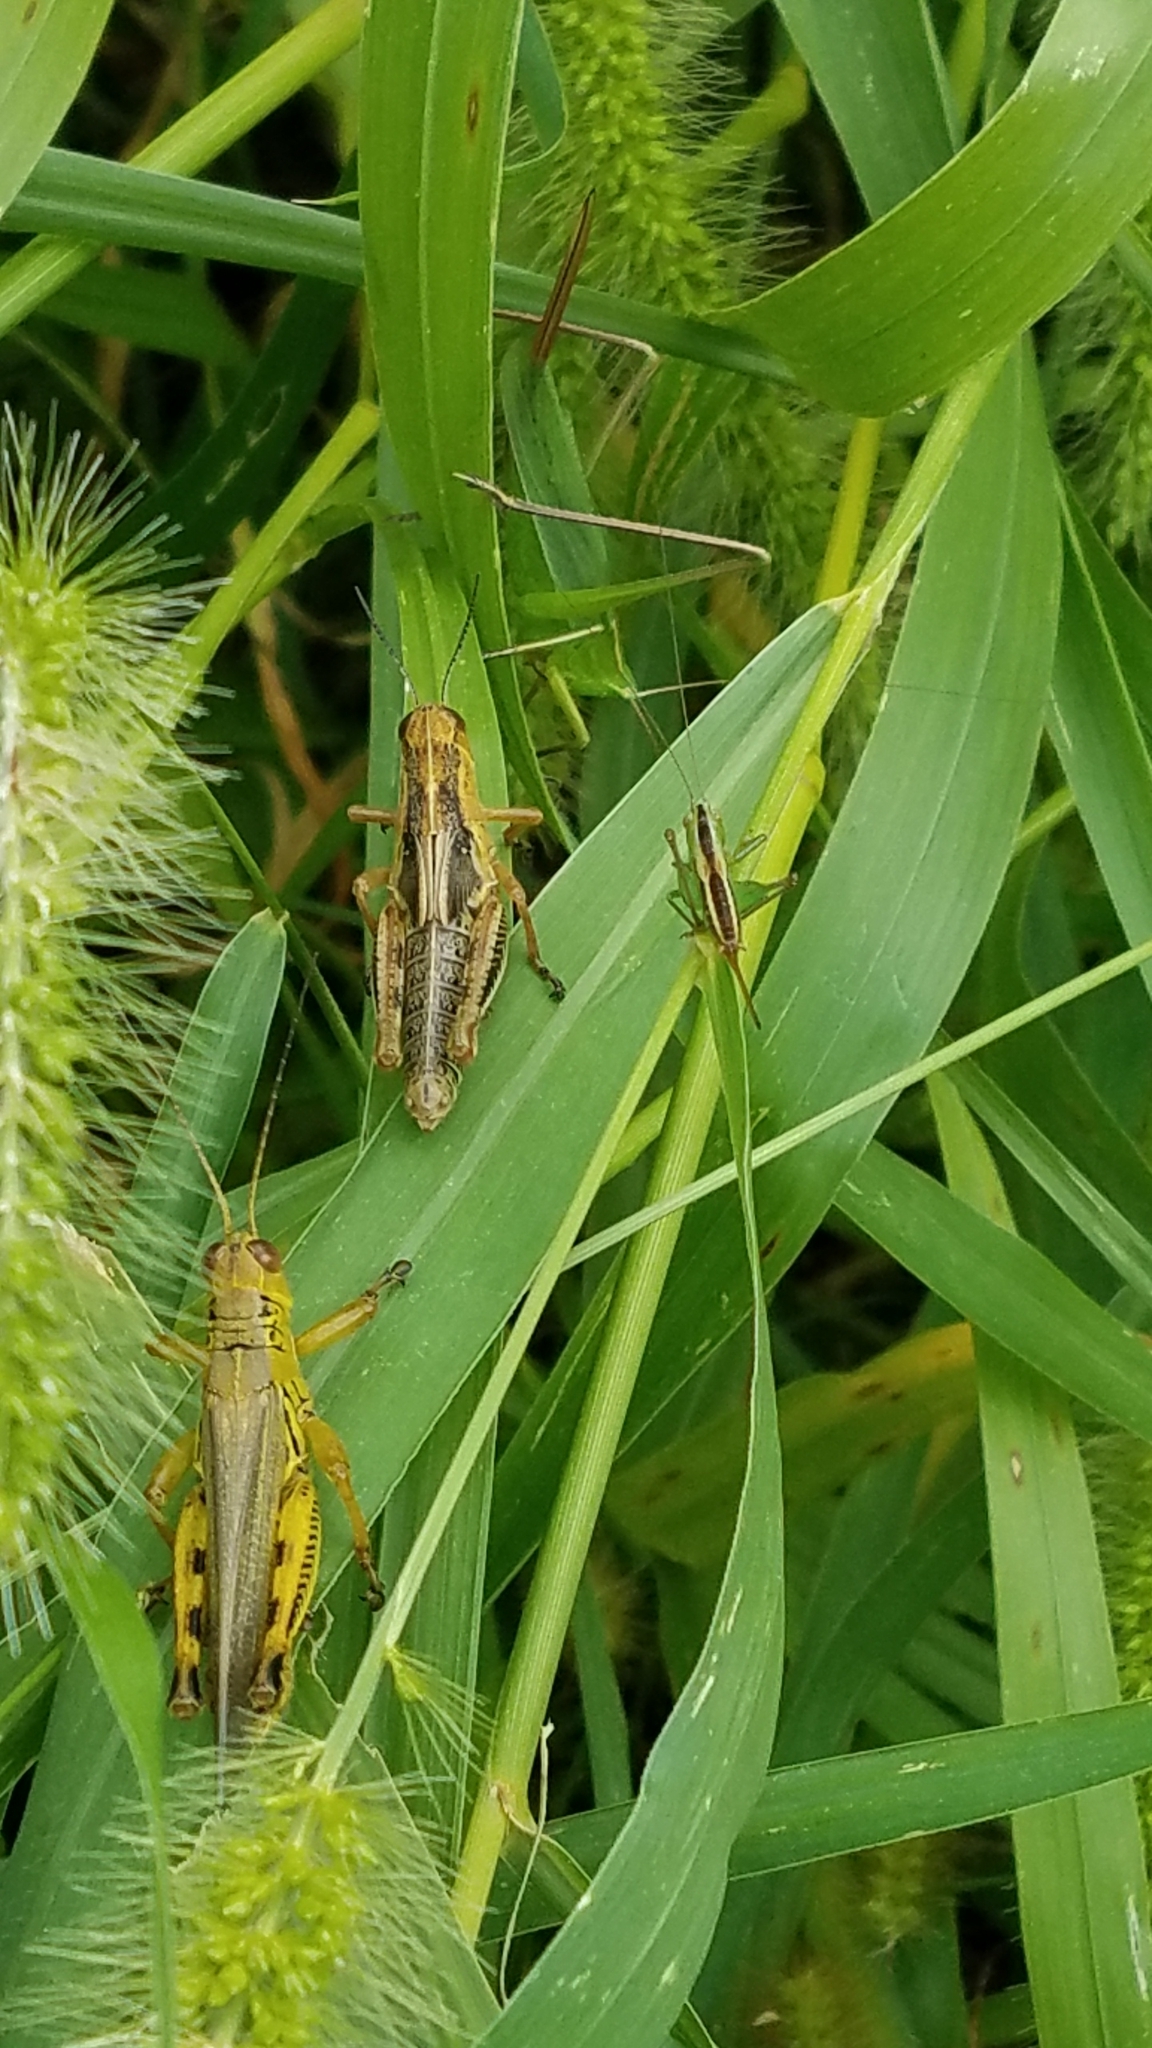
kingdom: Animalia
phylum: Arthropoda
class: Insecta
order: Orthoptera
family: Tettigoniidae
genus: Neoconocephalus
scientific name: Neoconocephalus retusus
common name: Round-tipped conehead
